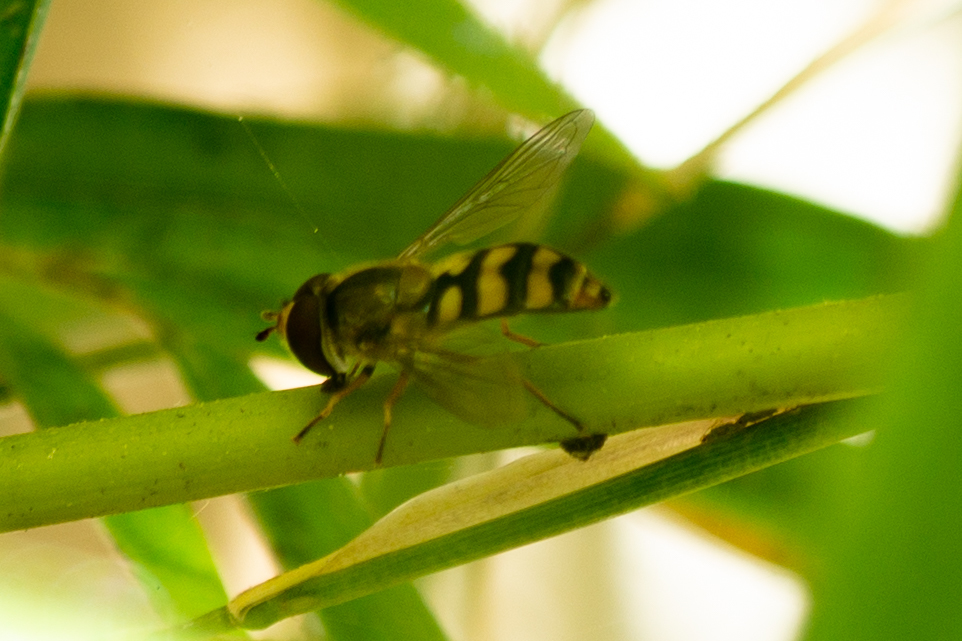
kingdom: Animalia
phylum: Arthropoda
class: Insecta
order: Diptera
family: Syrphidae
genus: Eupeodes
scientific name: Eupeodes fumipennis
